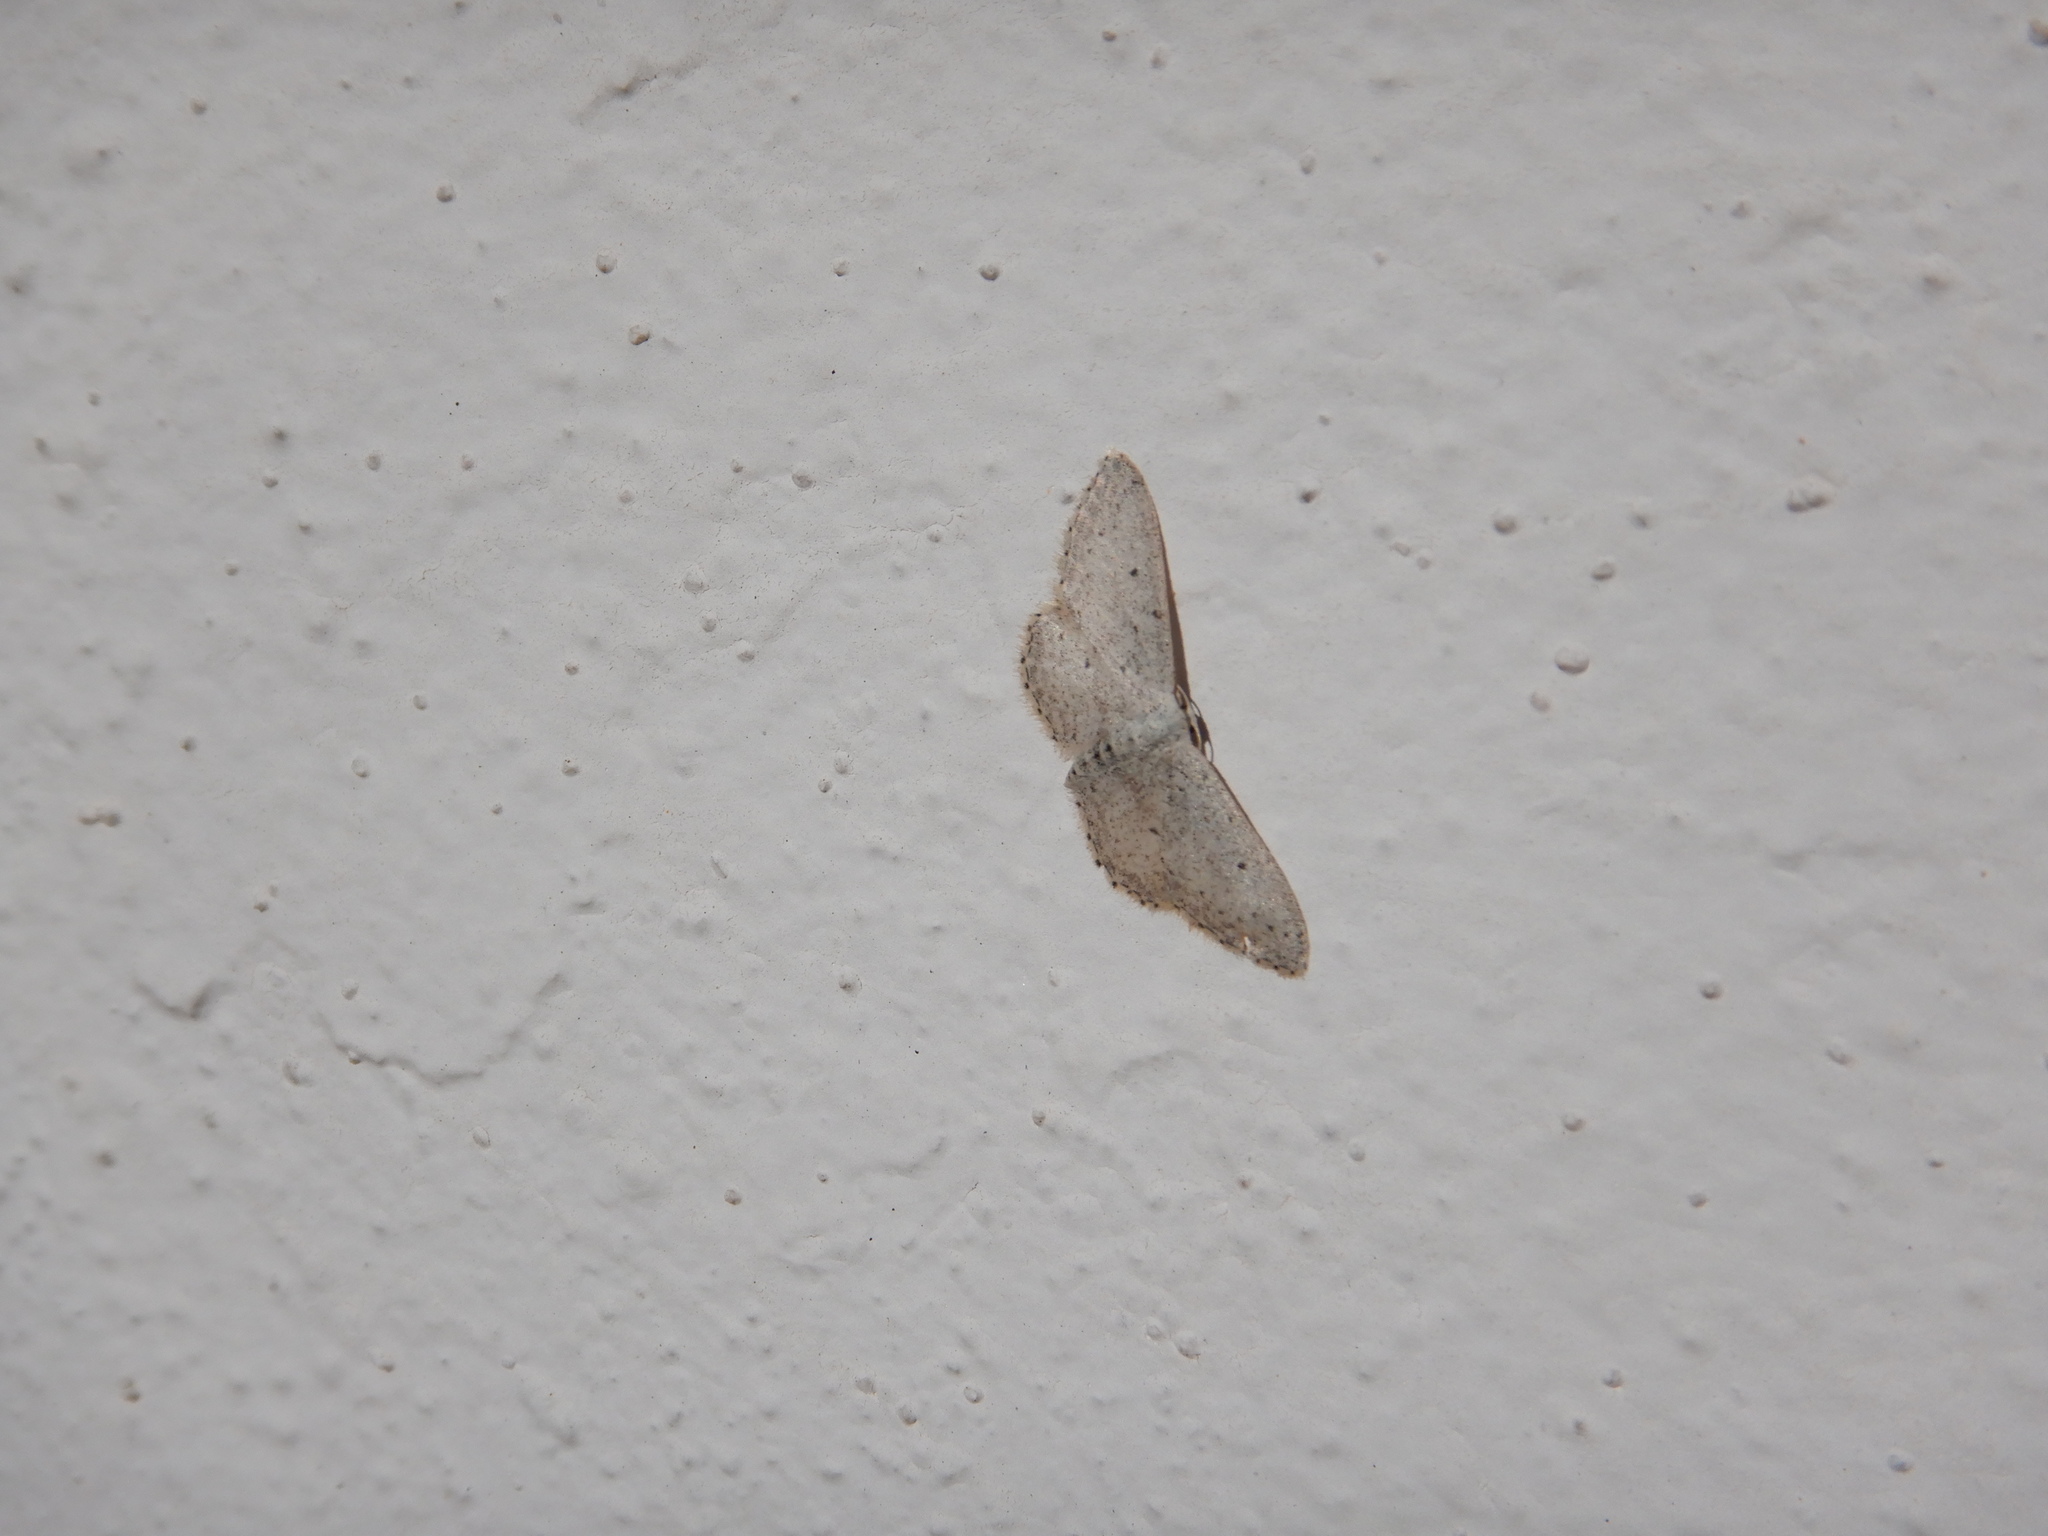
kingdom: Animalia
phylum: Arthropoda
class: Insecta
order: Lepidoptera
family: Geometridae
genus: Idaea
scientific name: Idaea seriata
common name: Small dusty wave
